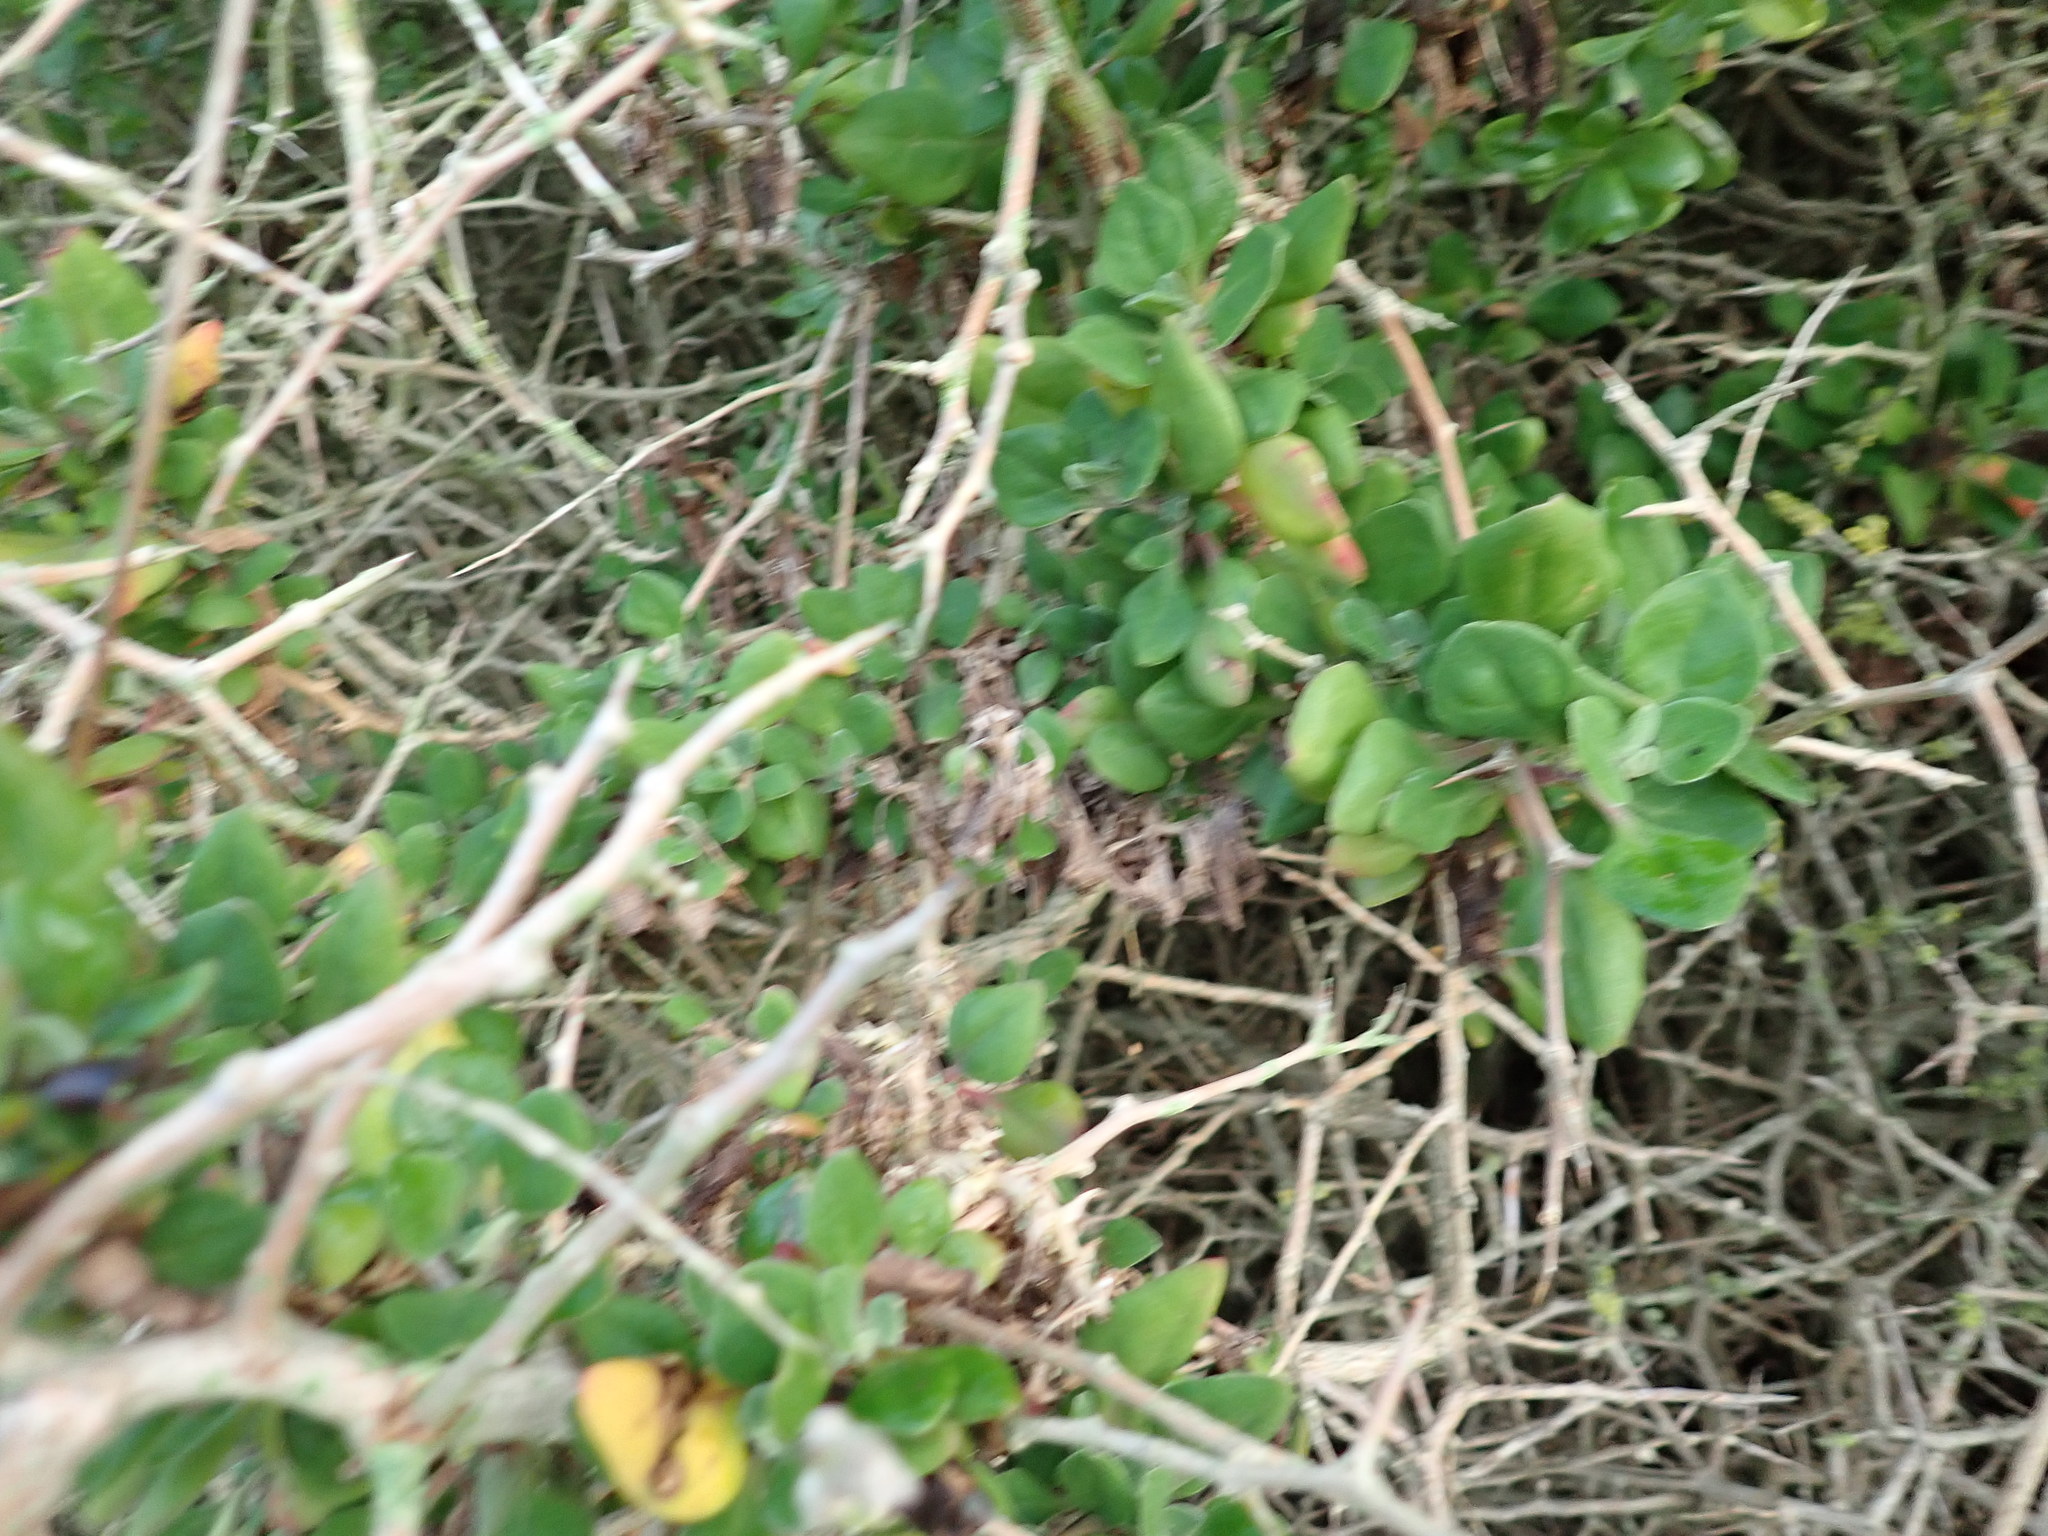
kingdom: Plantae
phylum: Tracheophyta
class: Magnoliopsida
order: Caryophyllales
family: Aizoaceae
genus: Tetragonia
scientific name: Tetragonia implexicoma
